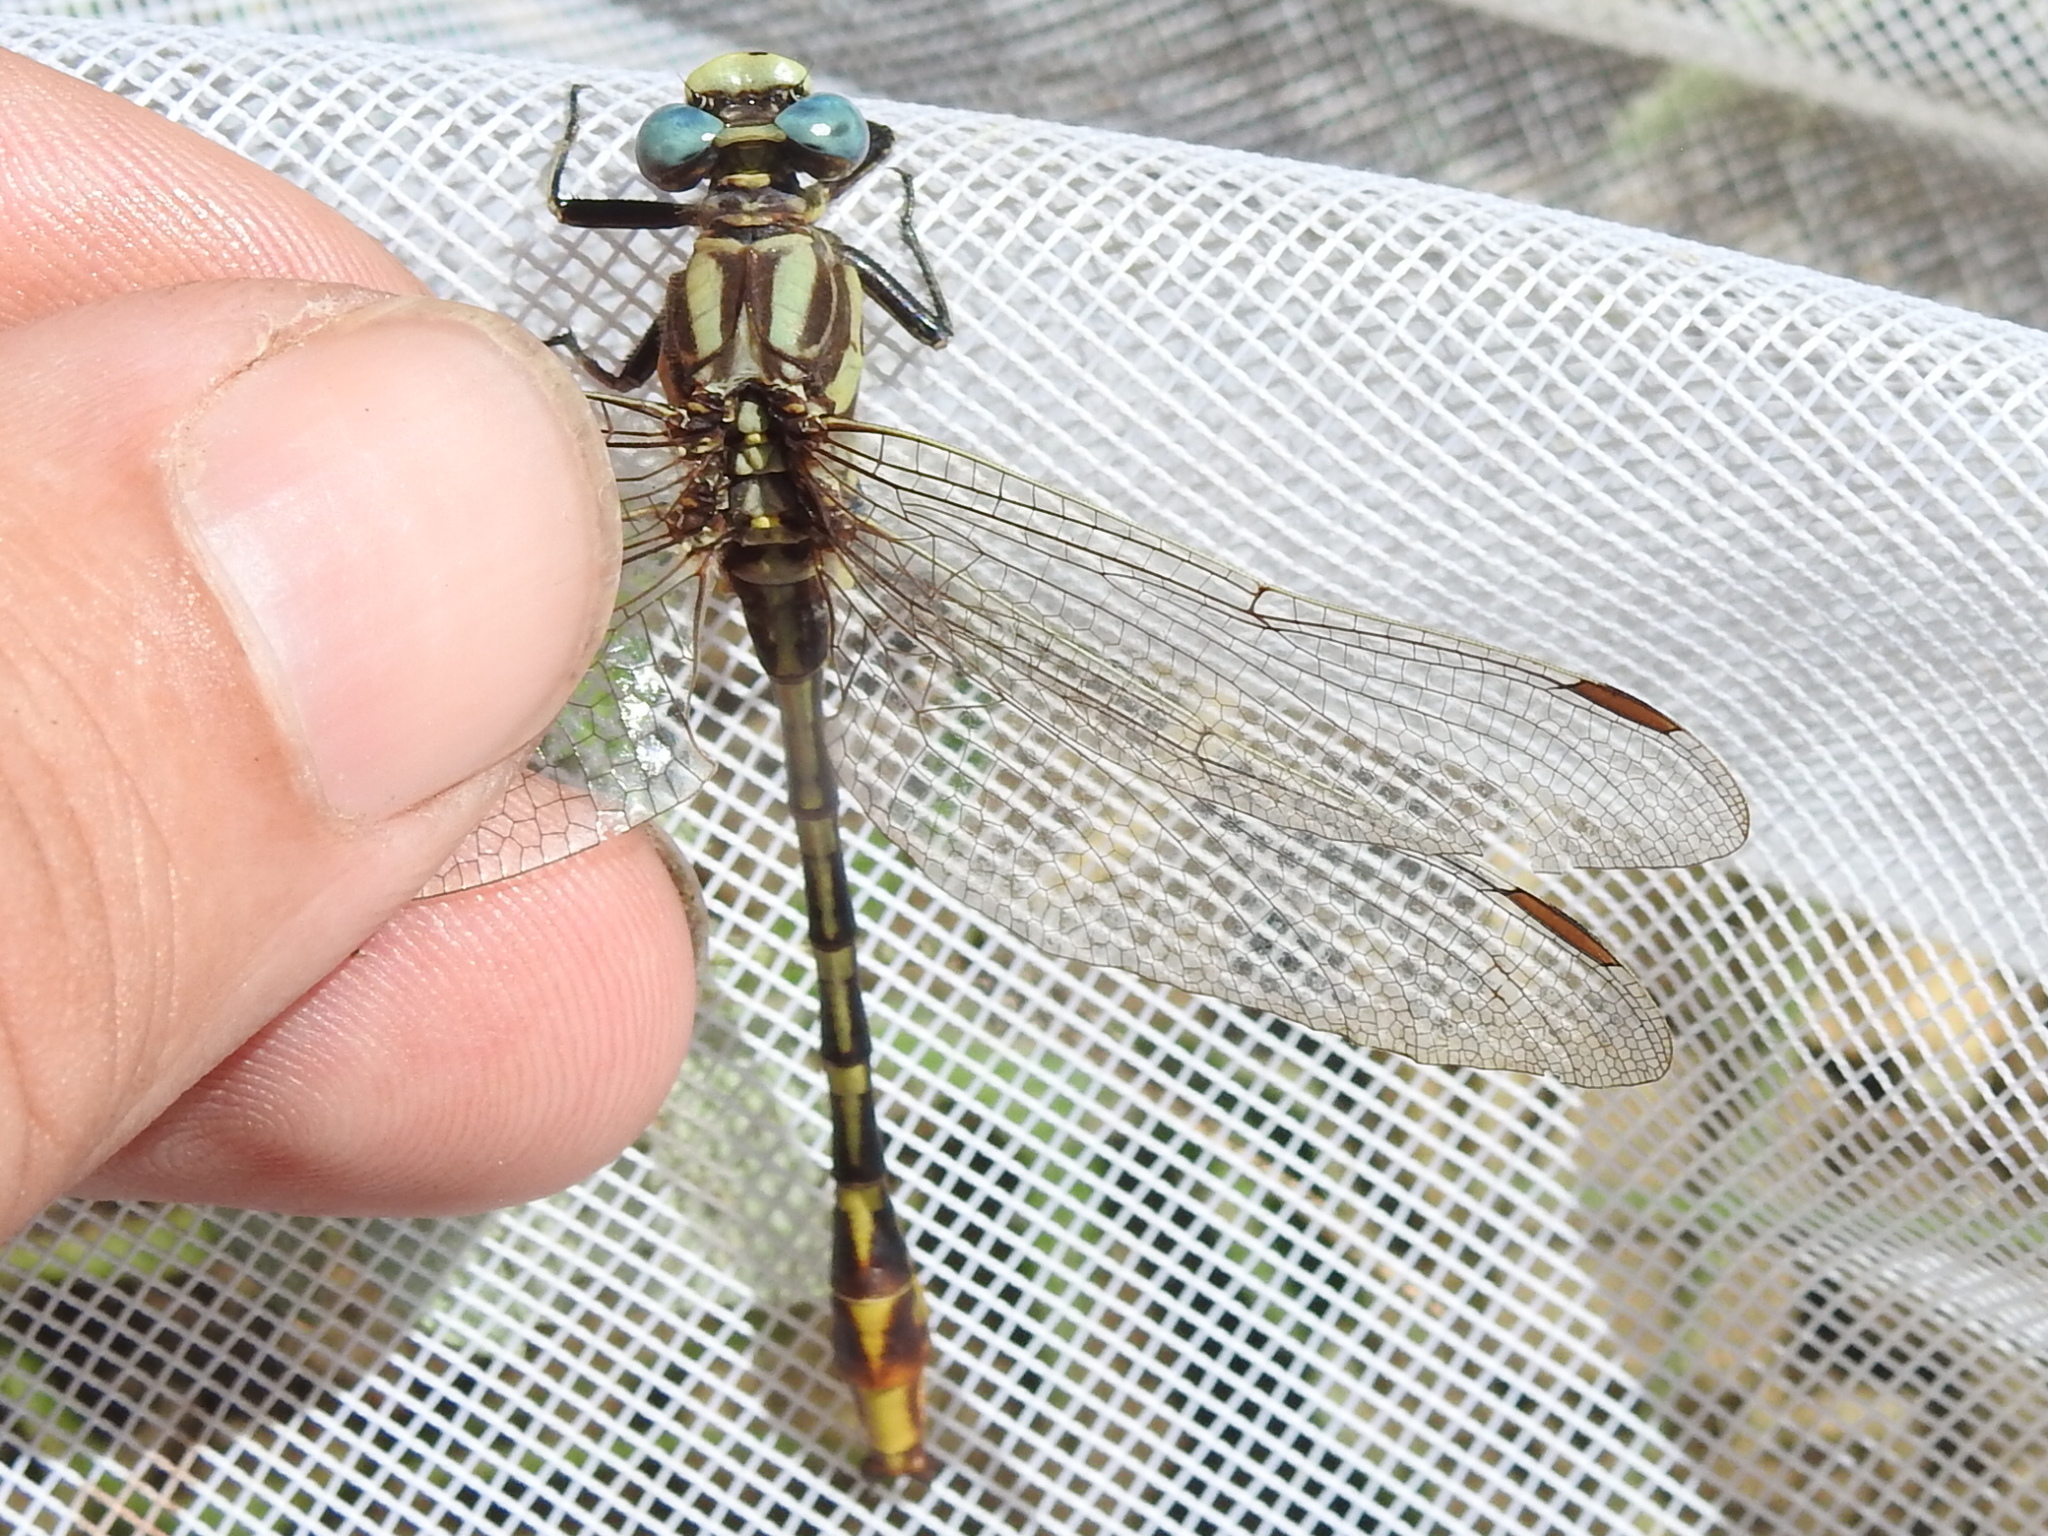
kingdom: Animalia
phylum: Arthropoda
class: Insecta
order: Odonata
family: Gomphidae
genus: Phanogomphus
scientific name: Phanogomphus militaris
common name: Sulphur-tipped clubtail
